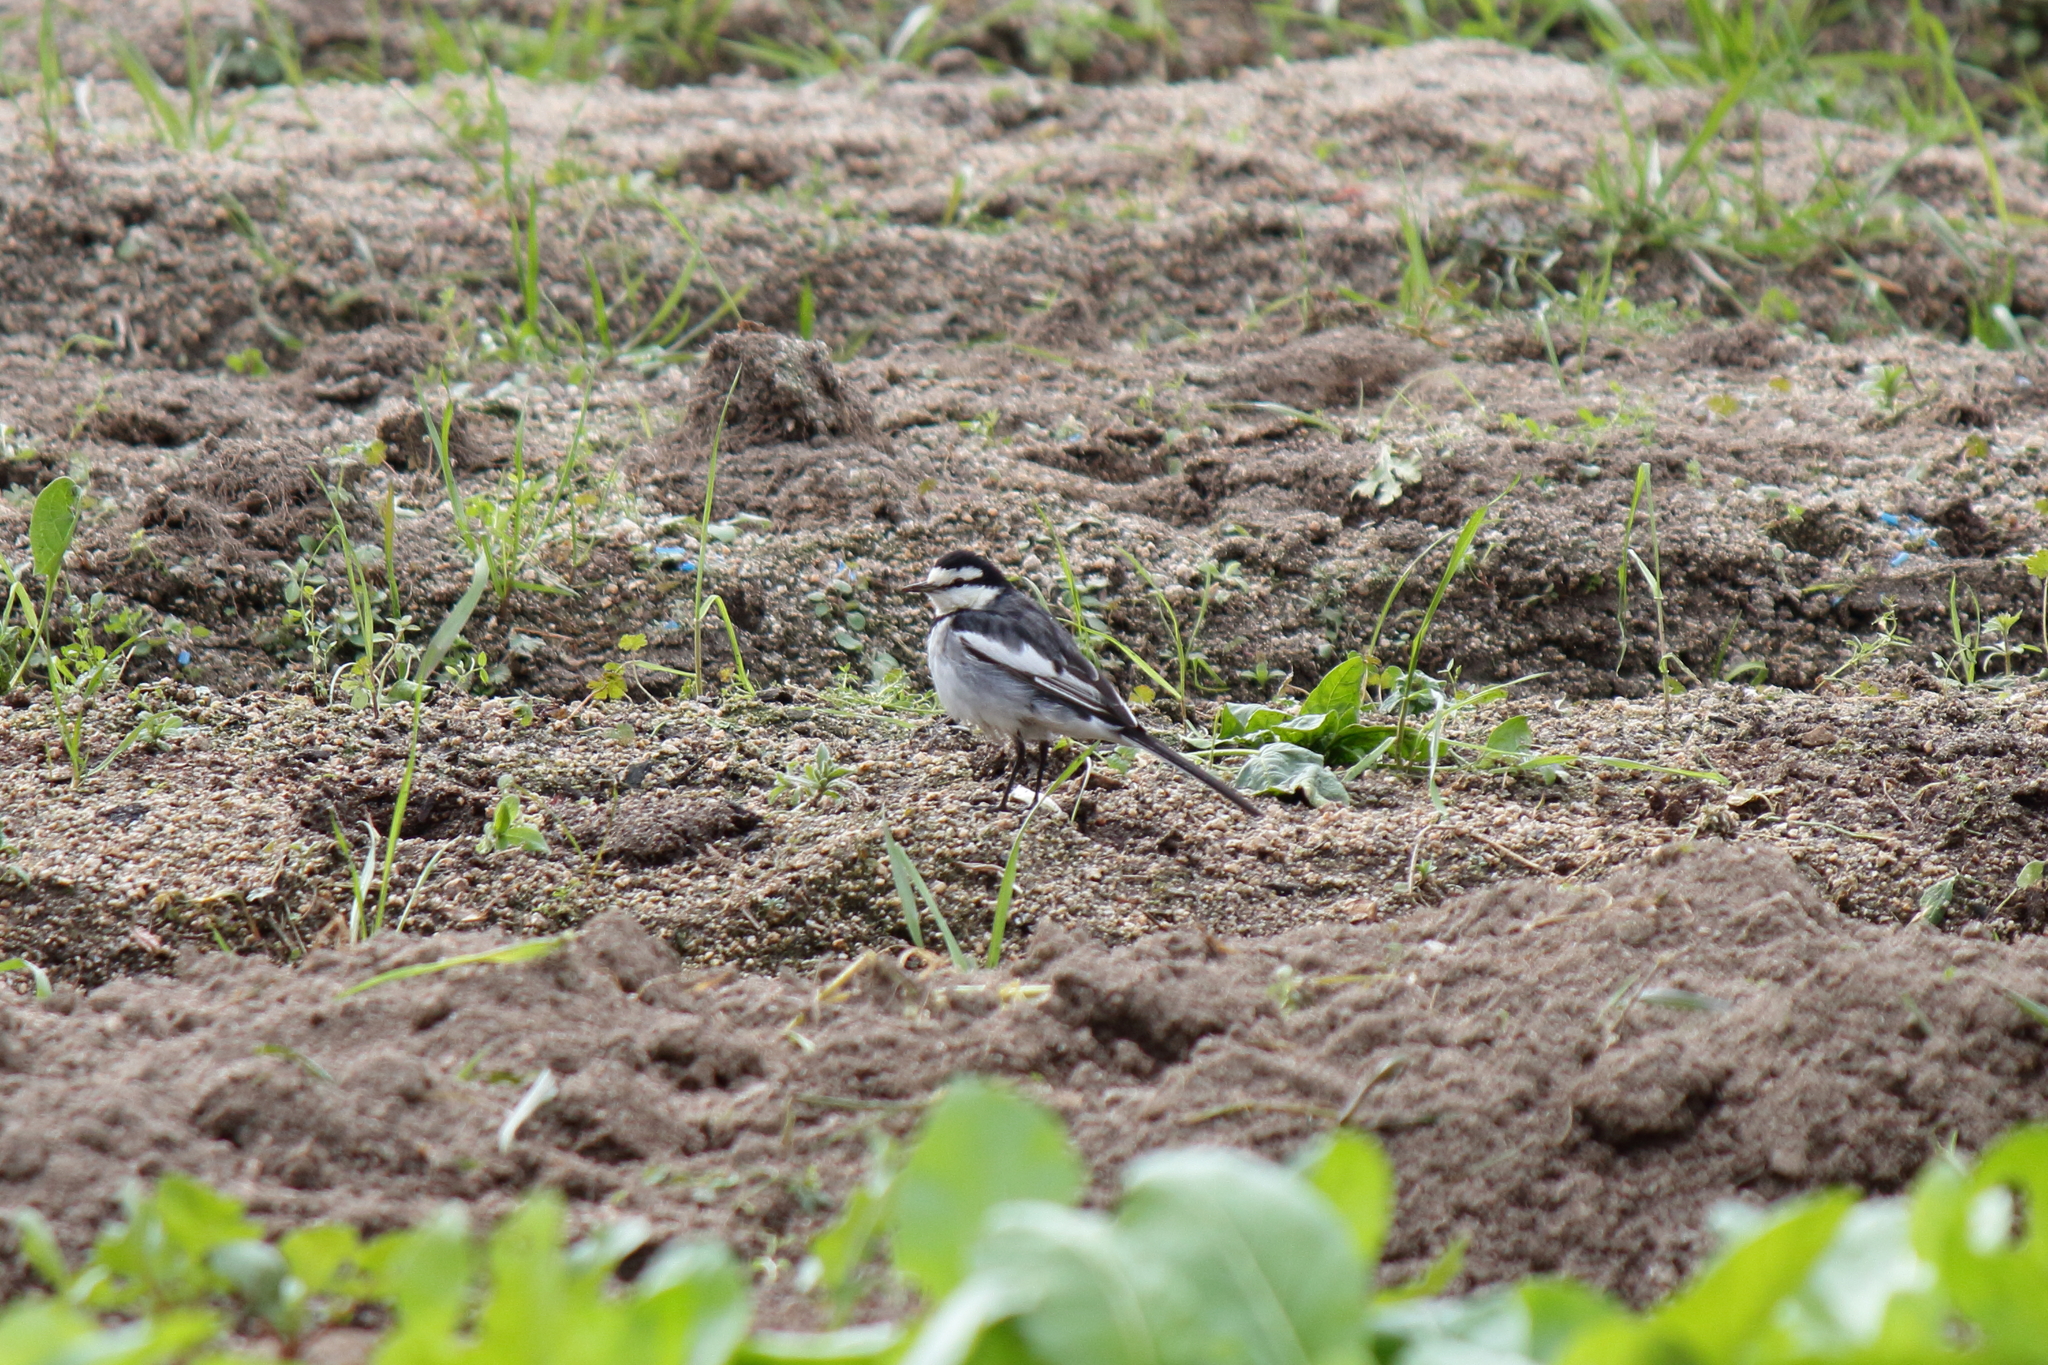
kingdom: Animalia
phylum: Chordata
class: Aves
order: Passeriformes
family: Motacillidae
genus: Motacilla
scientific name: Motacilla alba
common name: White wagtail
